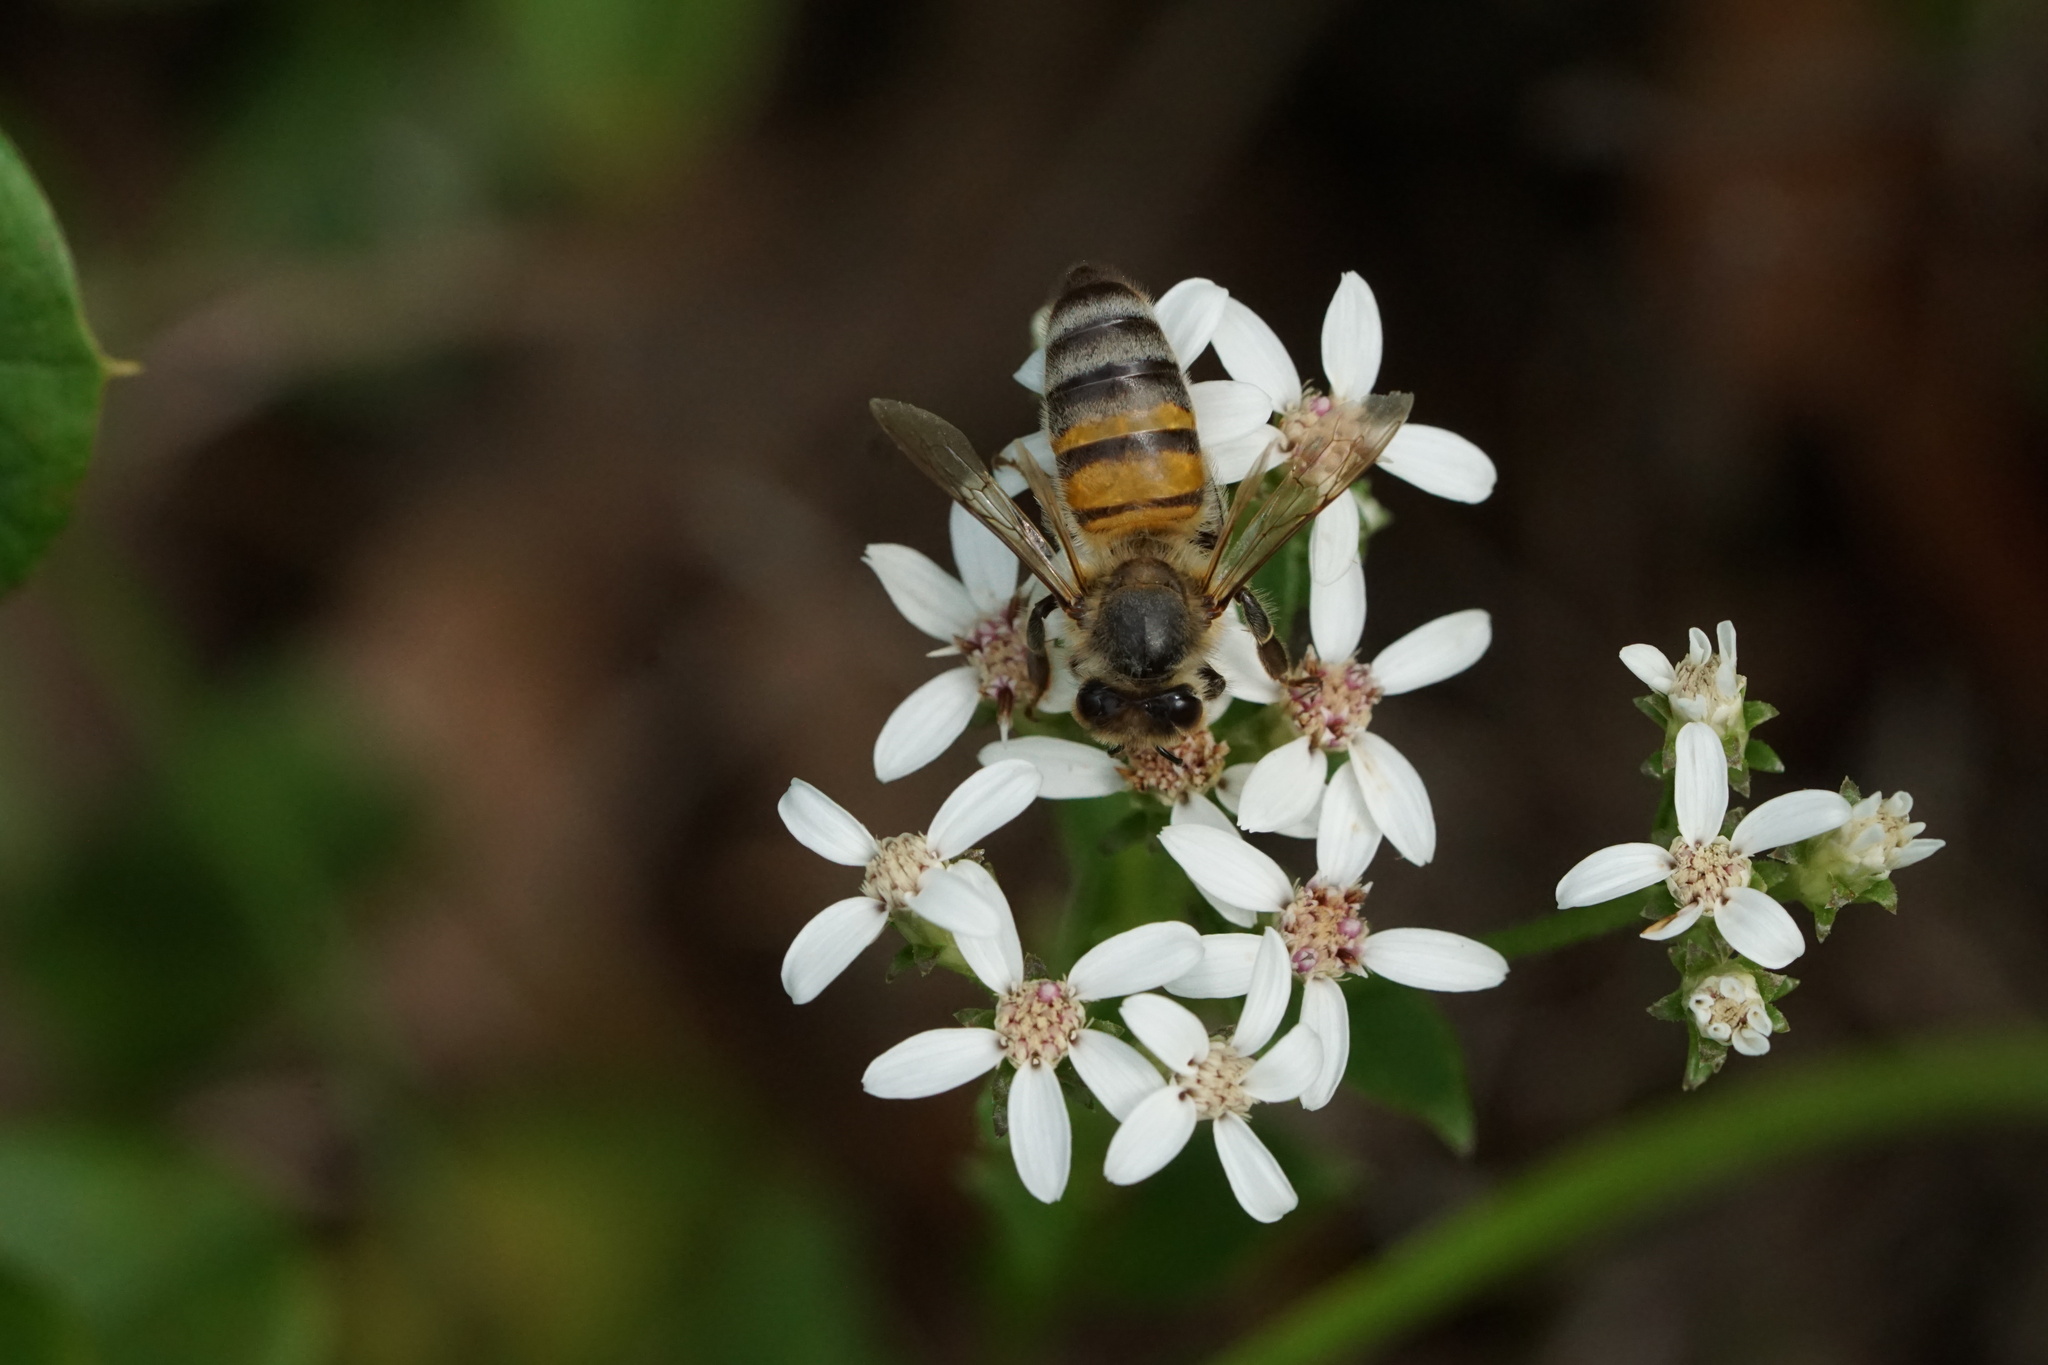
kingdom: Animalia
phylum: Arthropoda
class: Insecta
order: Hymenoptera
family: Apidae
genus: Apis
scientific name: Apis mellifera
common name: Honey bee
